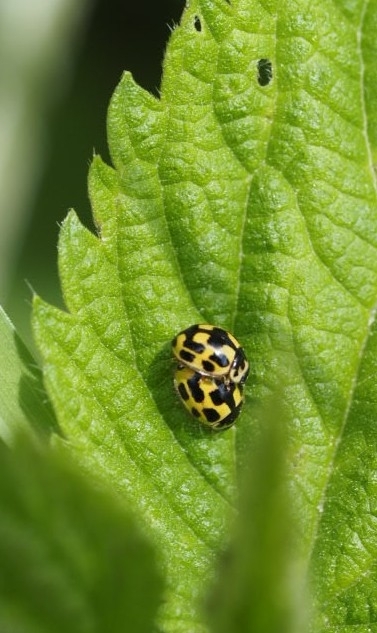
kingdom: Animalia
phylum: Arthropoda
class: Insecta
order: Coleoptera
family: Coccinellidae
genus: Propylaea
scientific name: Propylaea quatuordecimpunctata
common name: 14-spotted ladybird beetle
